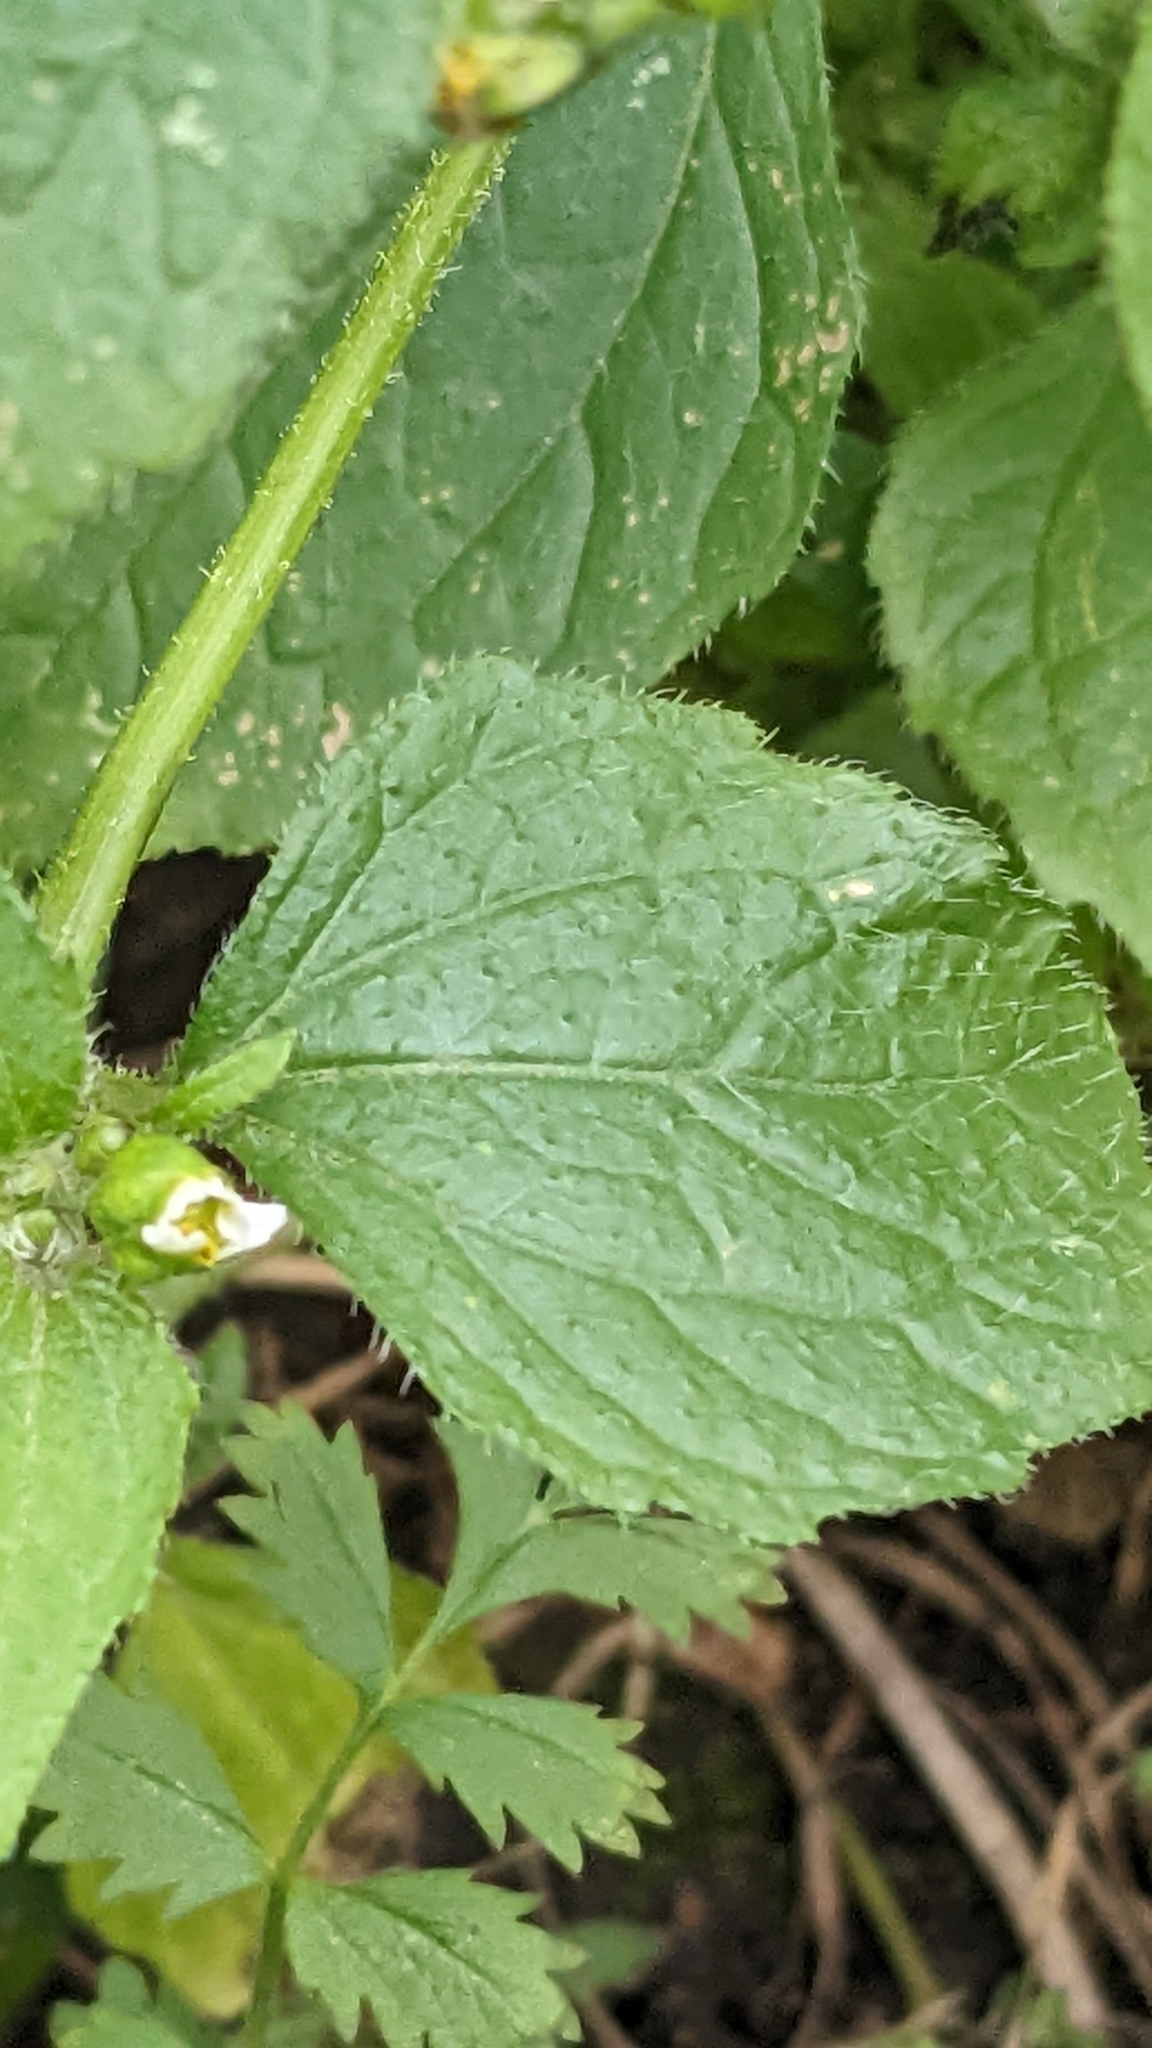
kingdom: Plantae
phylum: Tracheophyta
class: Magnoliopsida
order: Asterales
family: Asteraceae
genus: Galinsoga
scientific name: Galinsoga quadriradiata
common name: Shaggy soldier
